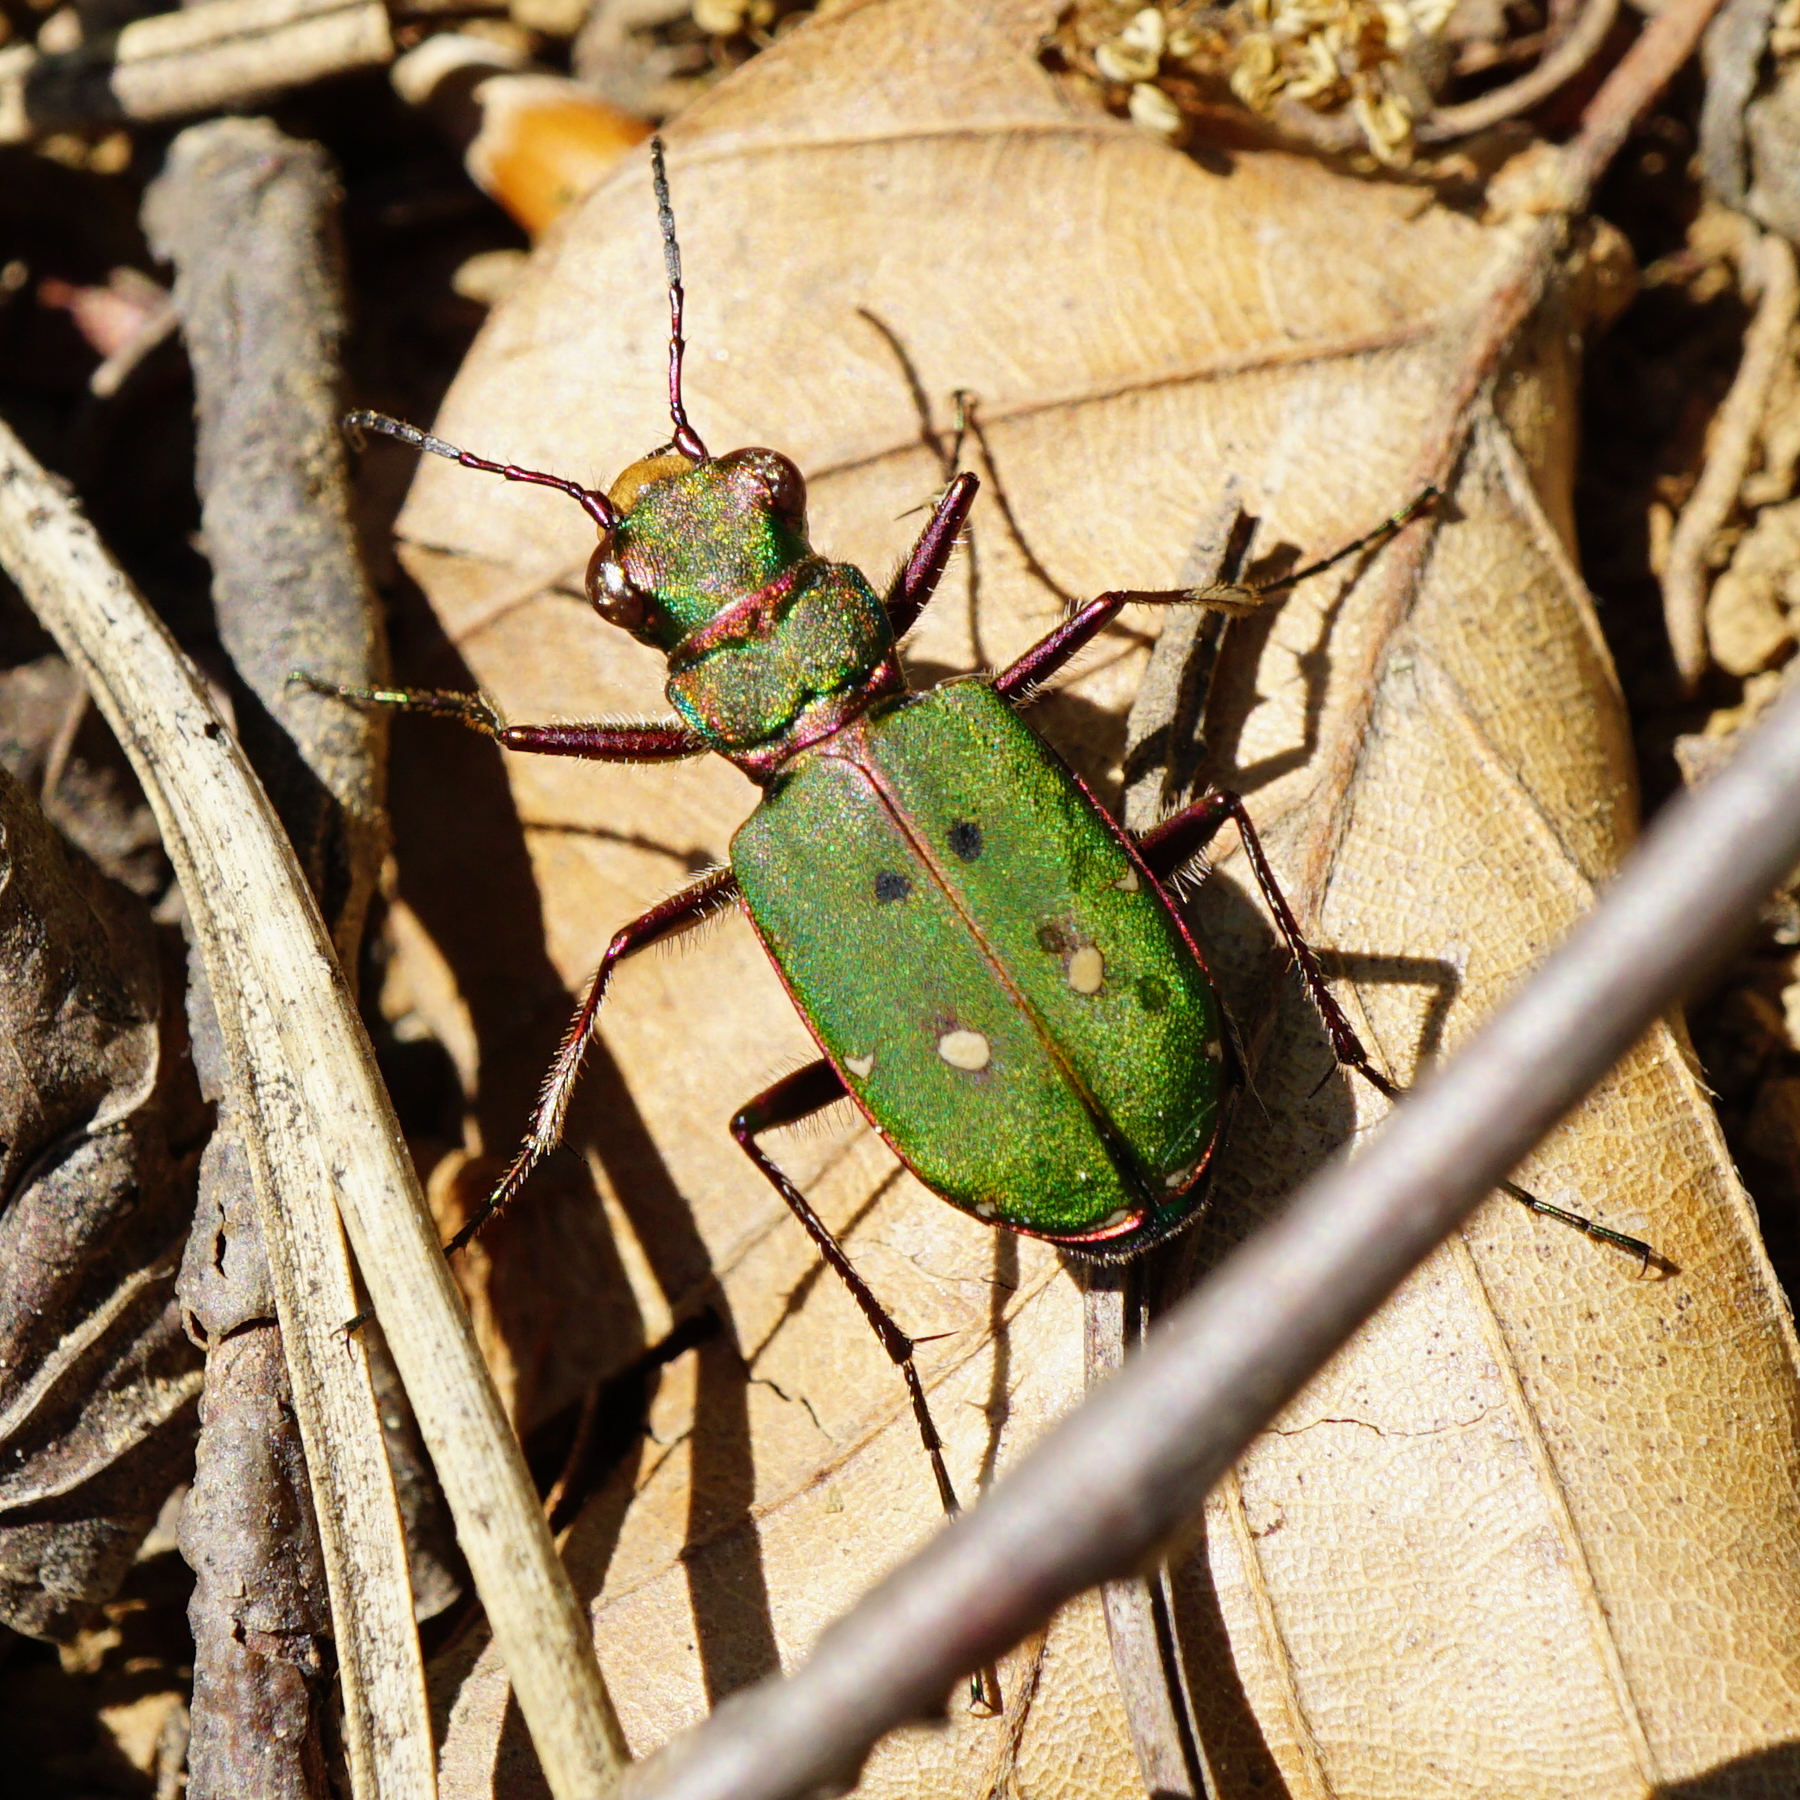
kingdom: Animalia
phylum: Arthropoda
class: Insecta
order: Coleoptera
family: Carabidae
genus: Cicindela
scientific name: Cicindela campestris
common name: Common tiger beetle
